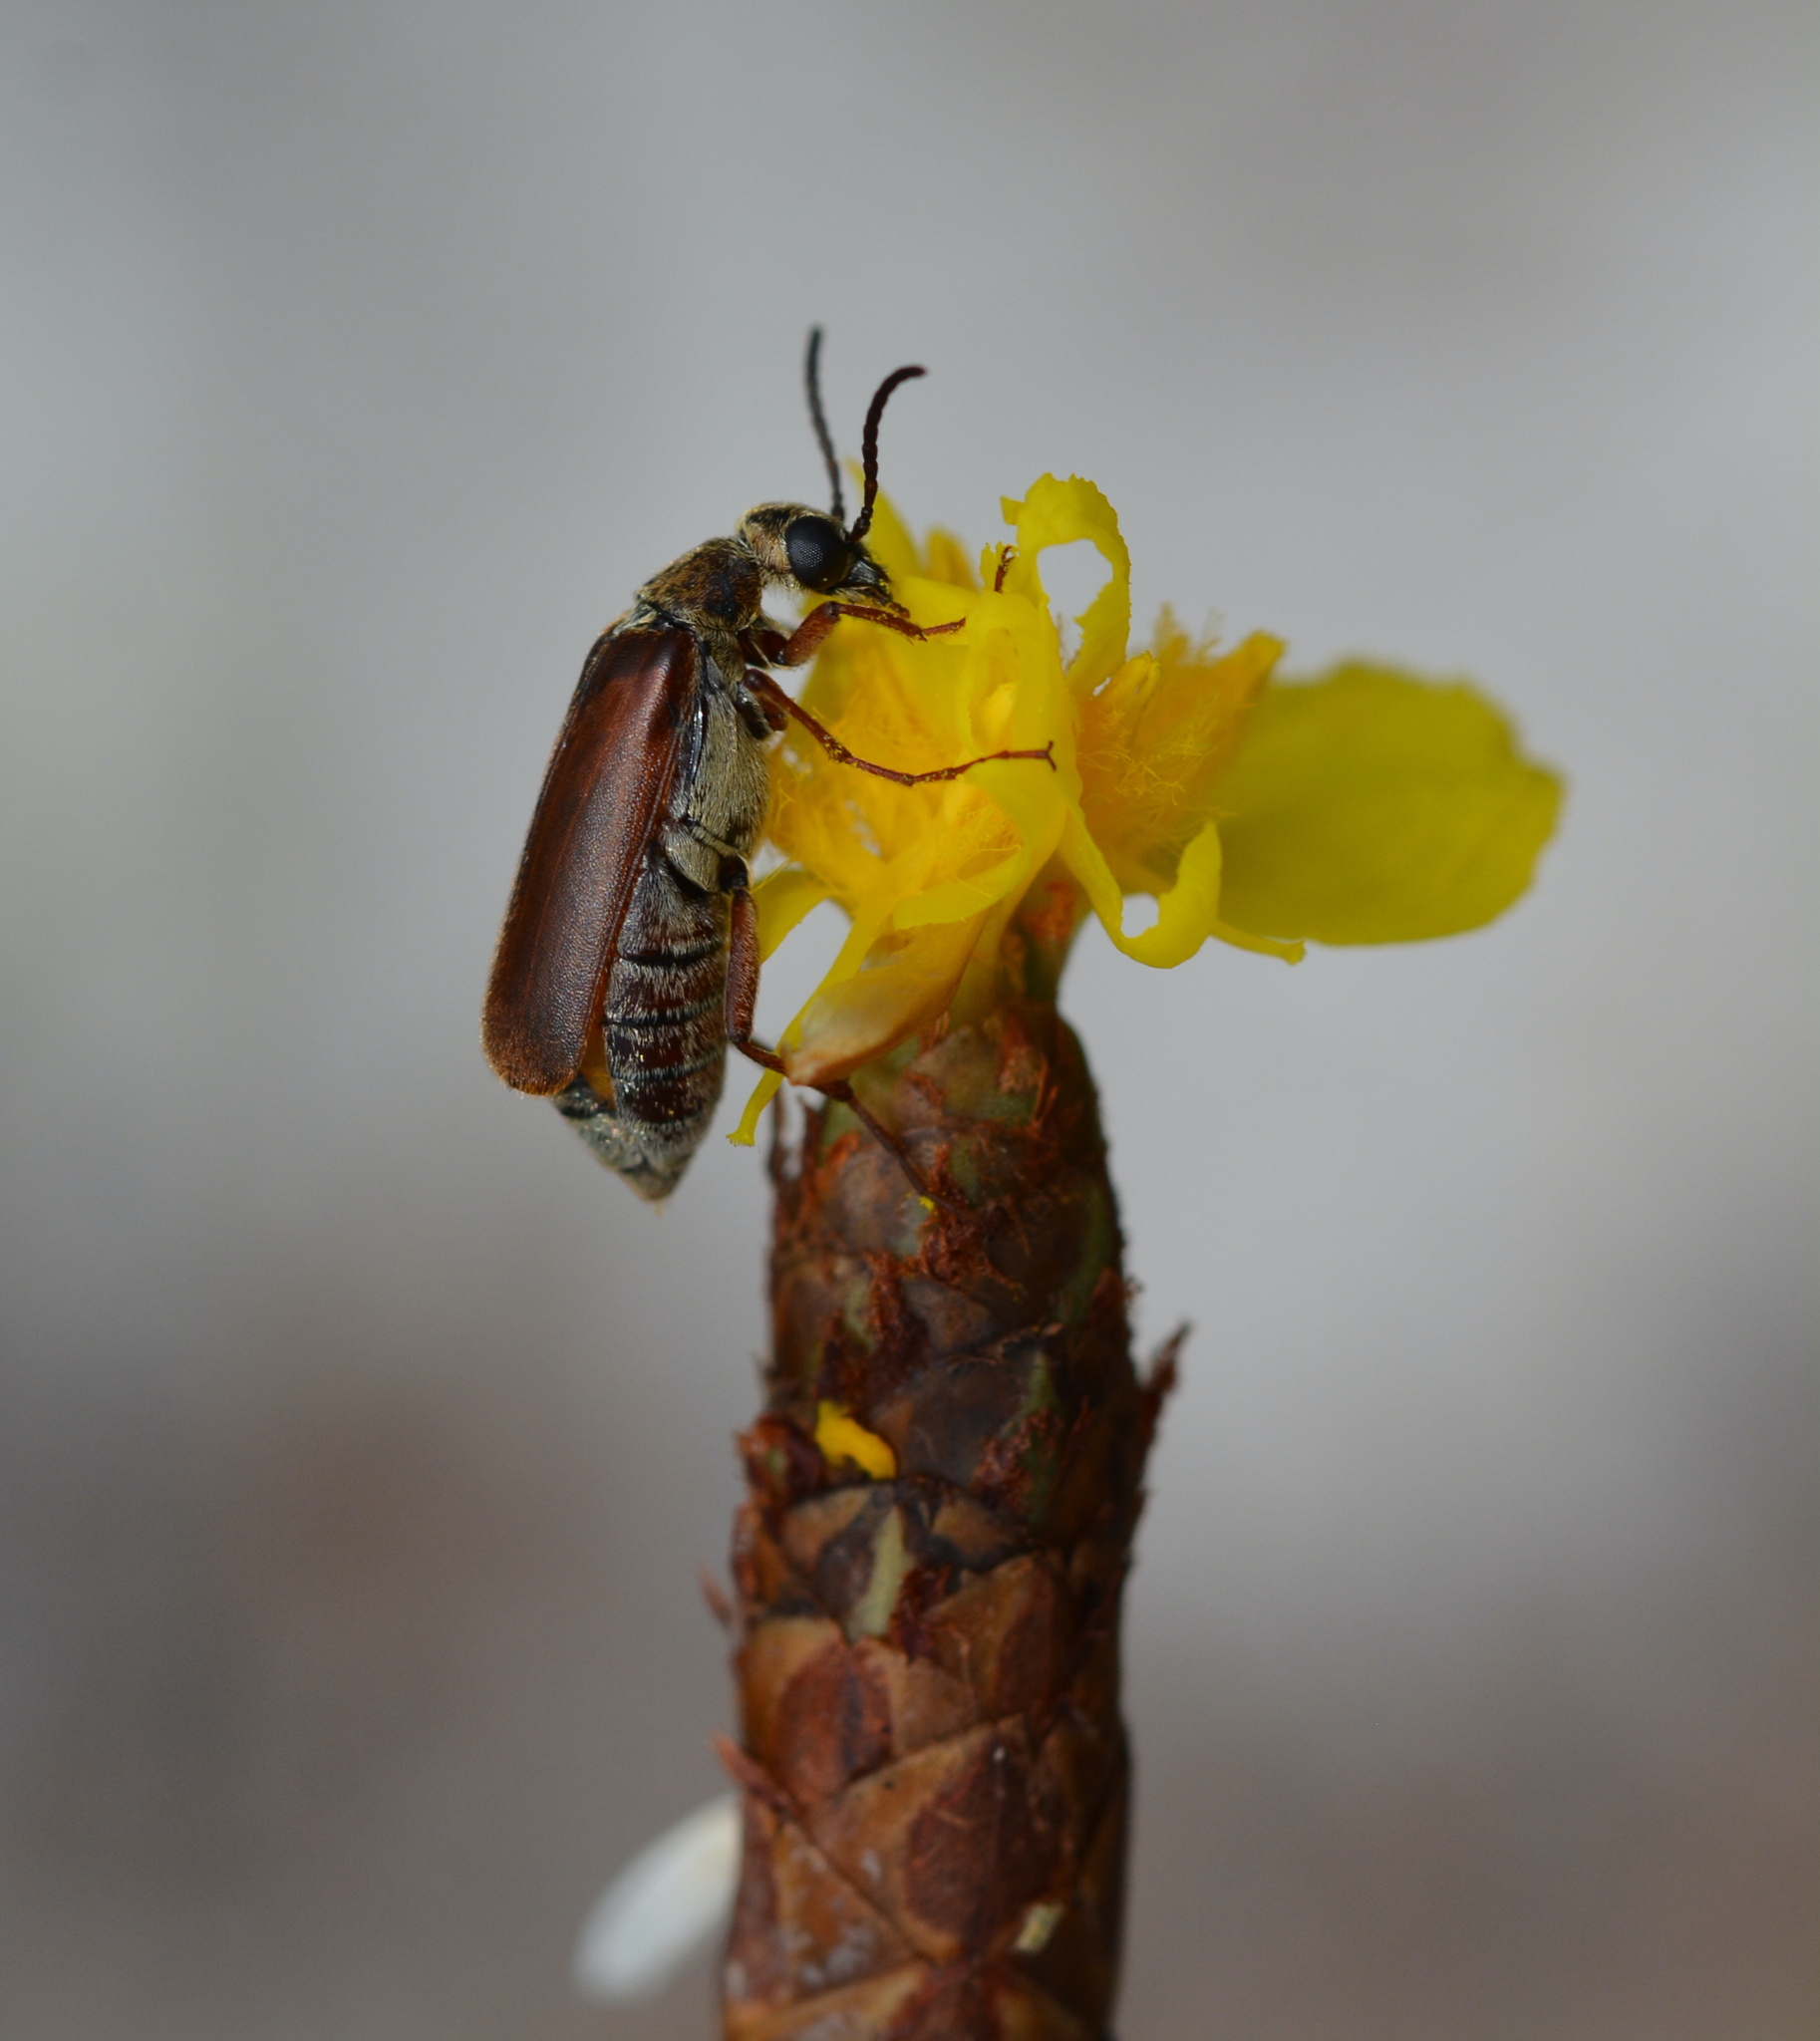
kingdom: Animalia
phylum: Arthropoda
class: Insecta
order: Coleoptera
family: Meloidae
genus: Epicauta
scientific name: Epicauta batesii
